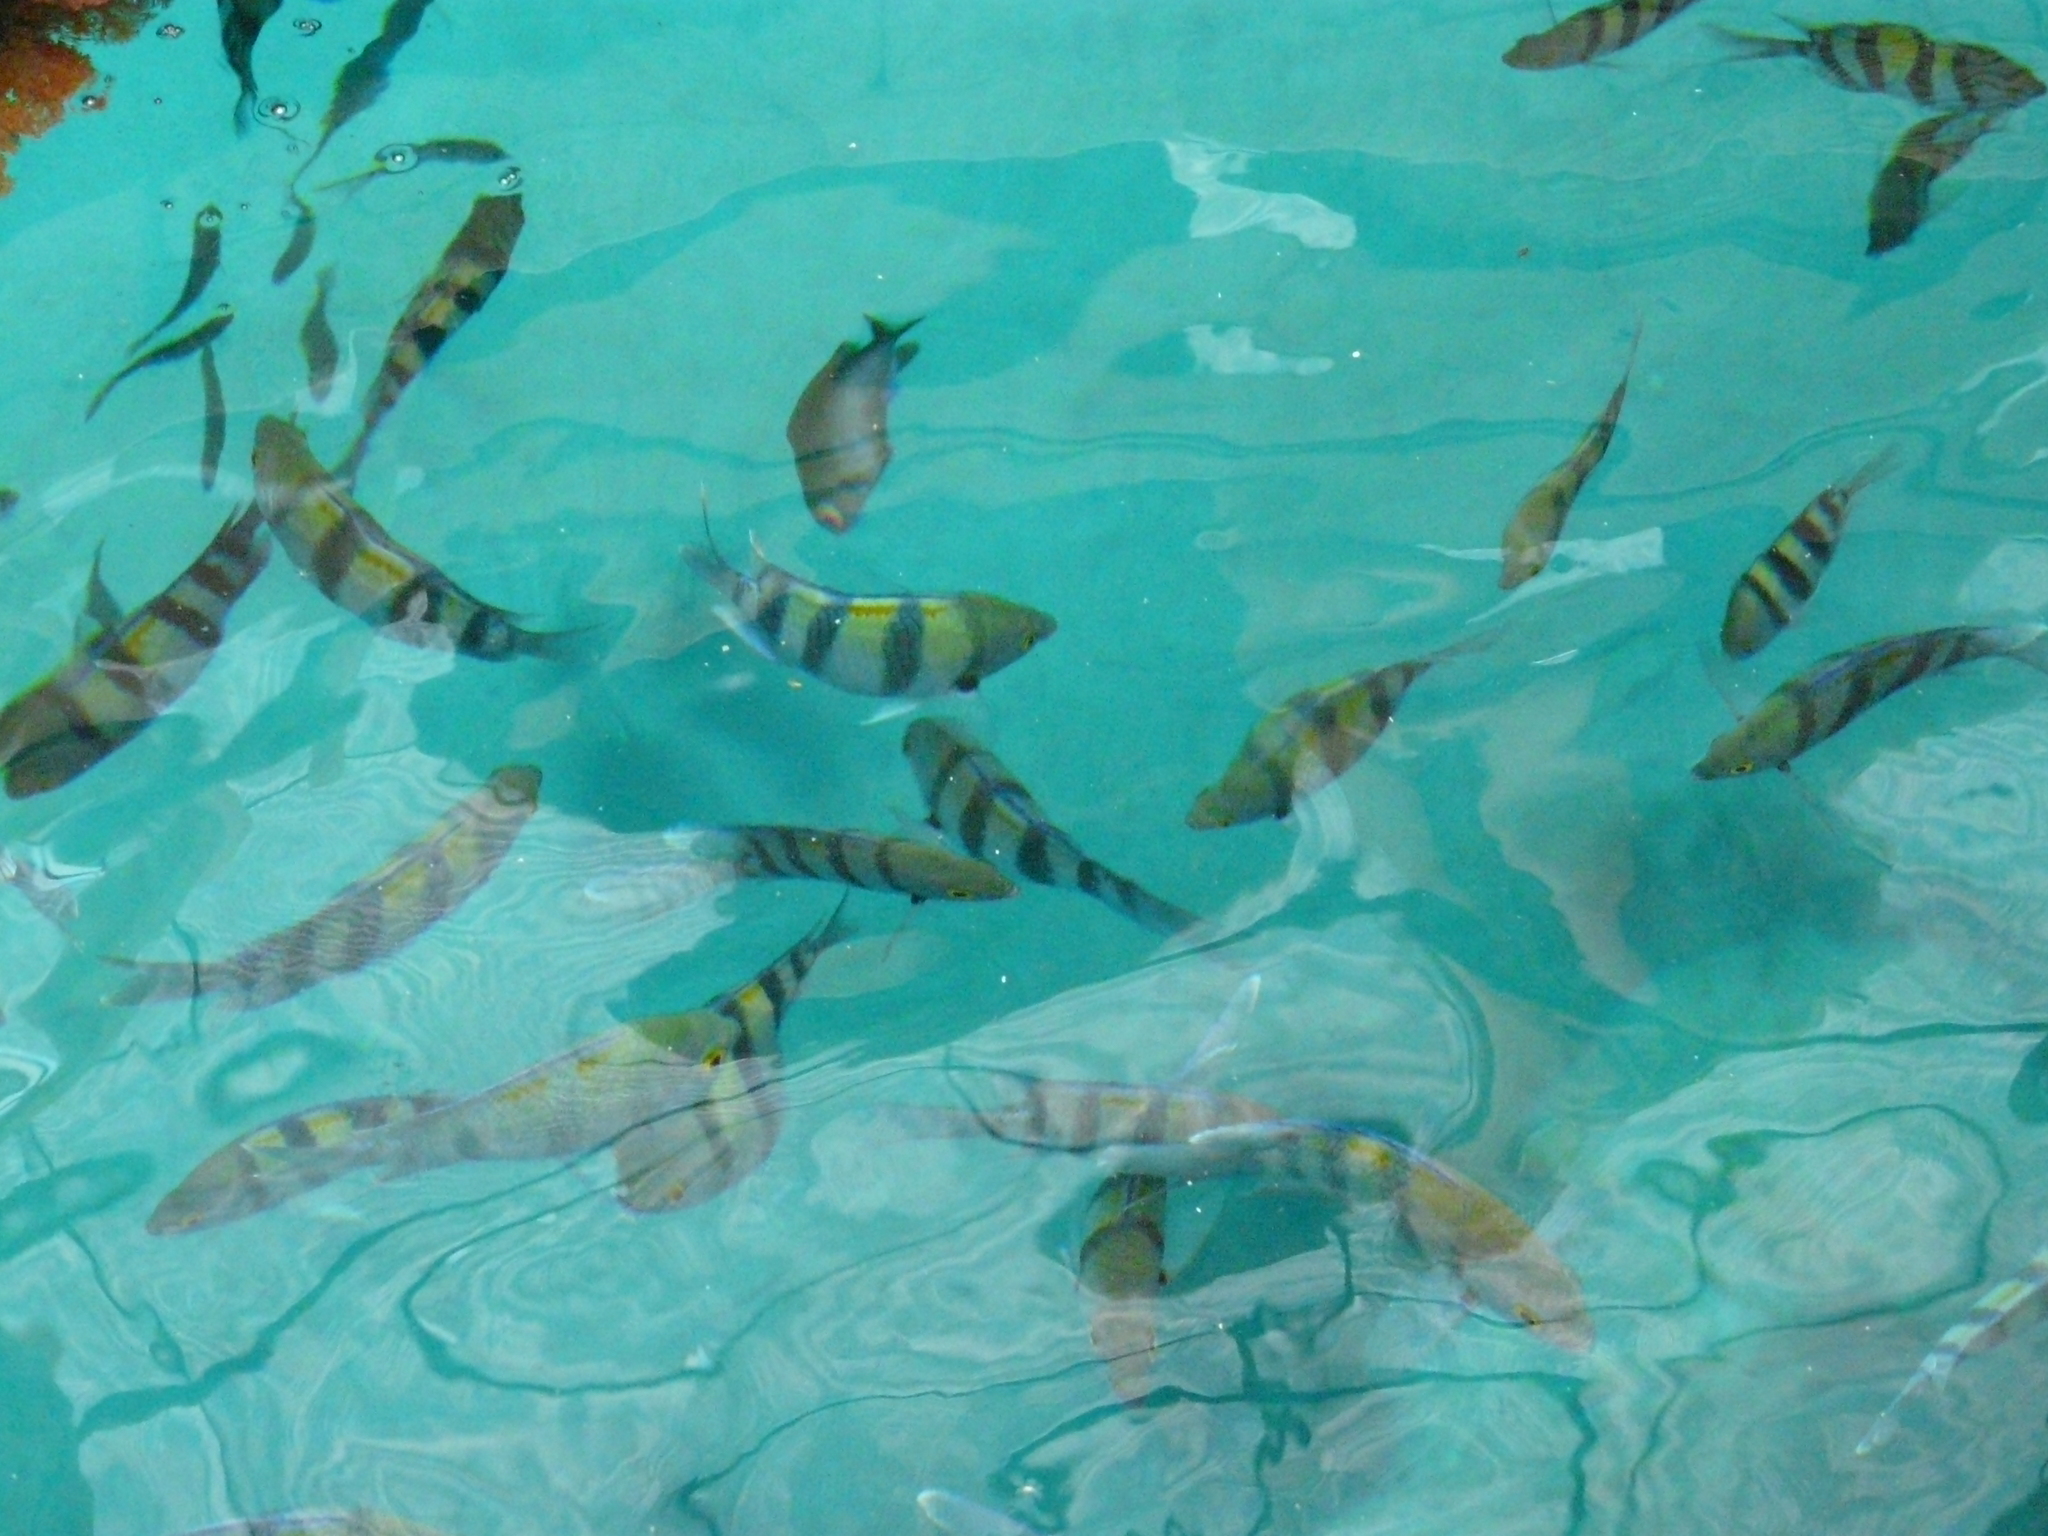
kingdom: Animalia
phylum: Chordata
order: Perciformes
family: Pomacentridae
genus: Abudefduf
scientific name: Abudefduf vaigiensis
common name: Indo-pacific sergeant
